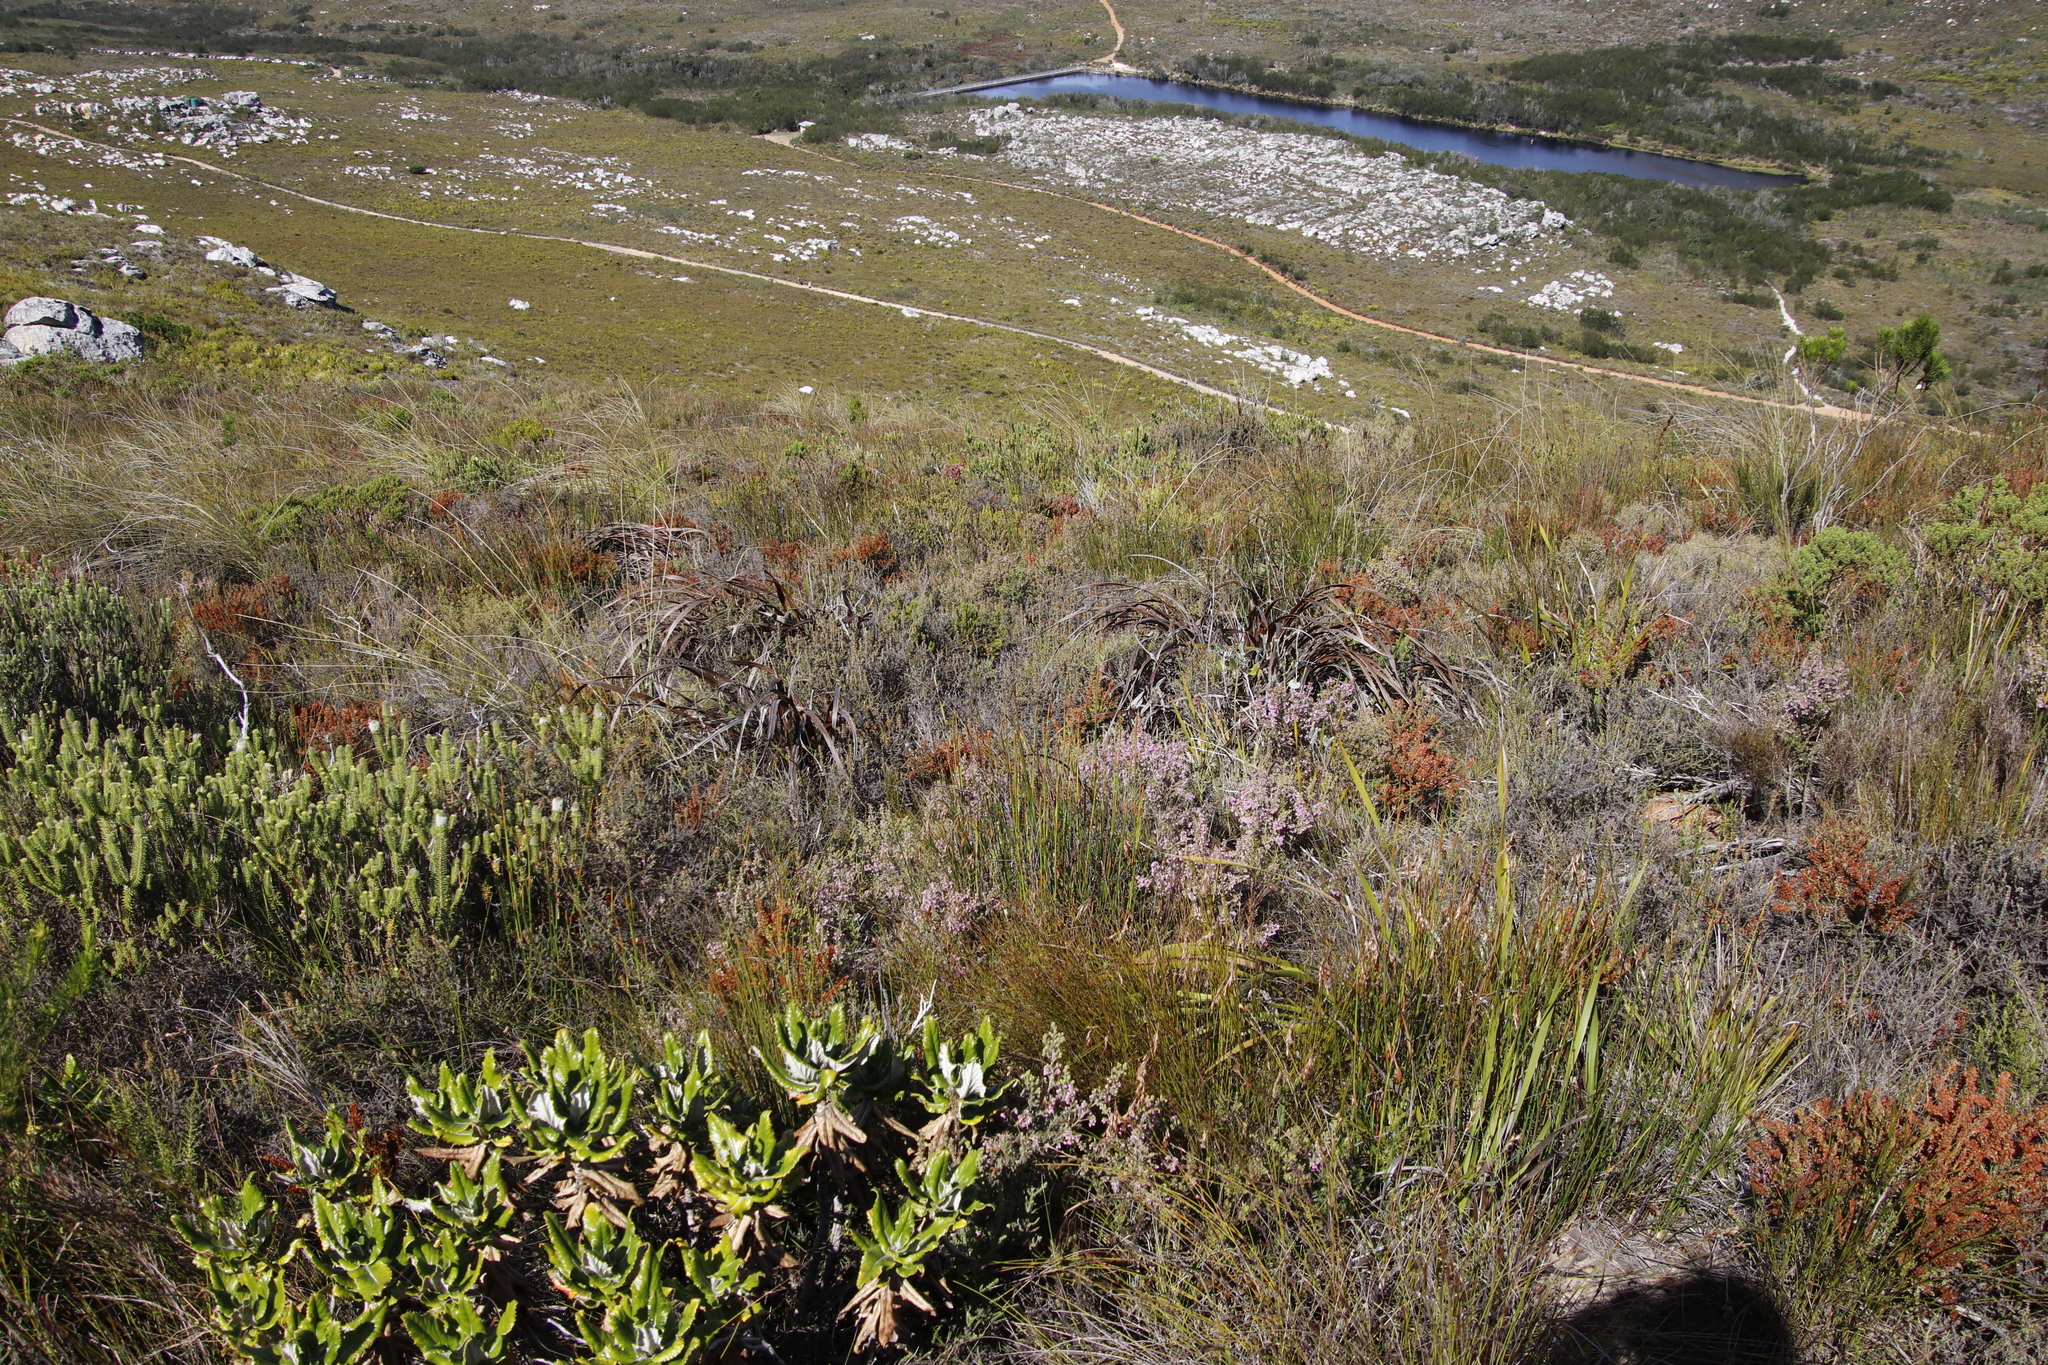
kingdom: Plantae
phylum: Tracheophyta
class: Magnoliopsida
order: Ericales
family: Ericaceae
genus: Erica
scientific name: Erica hirtiflora
